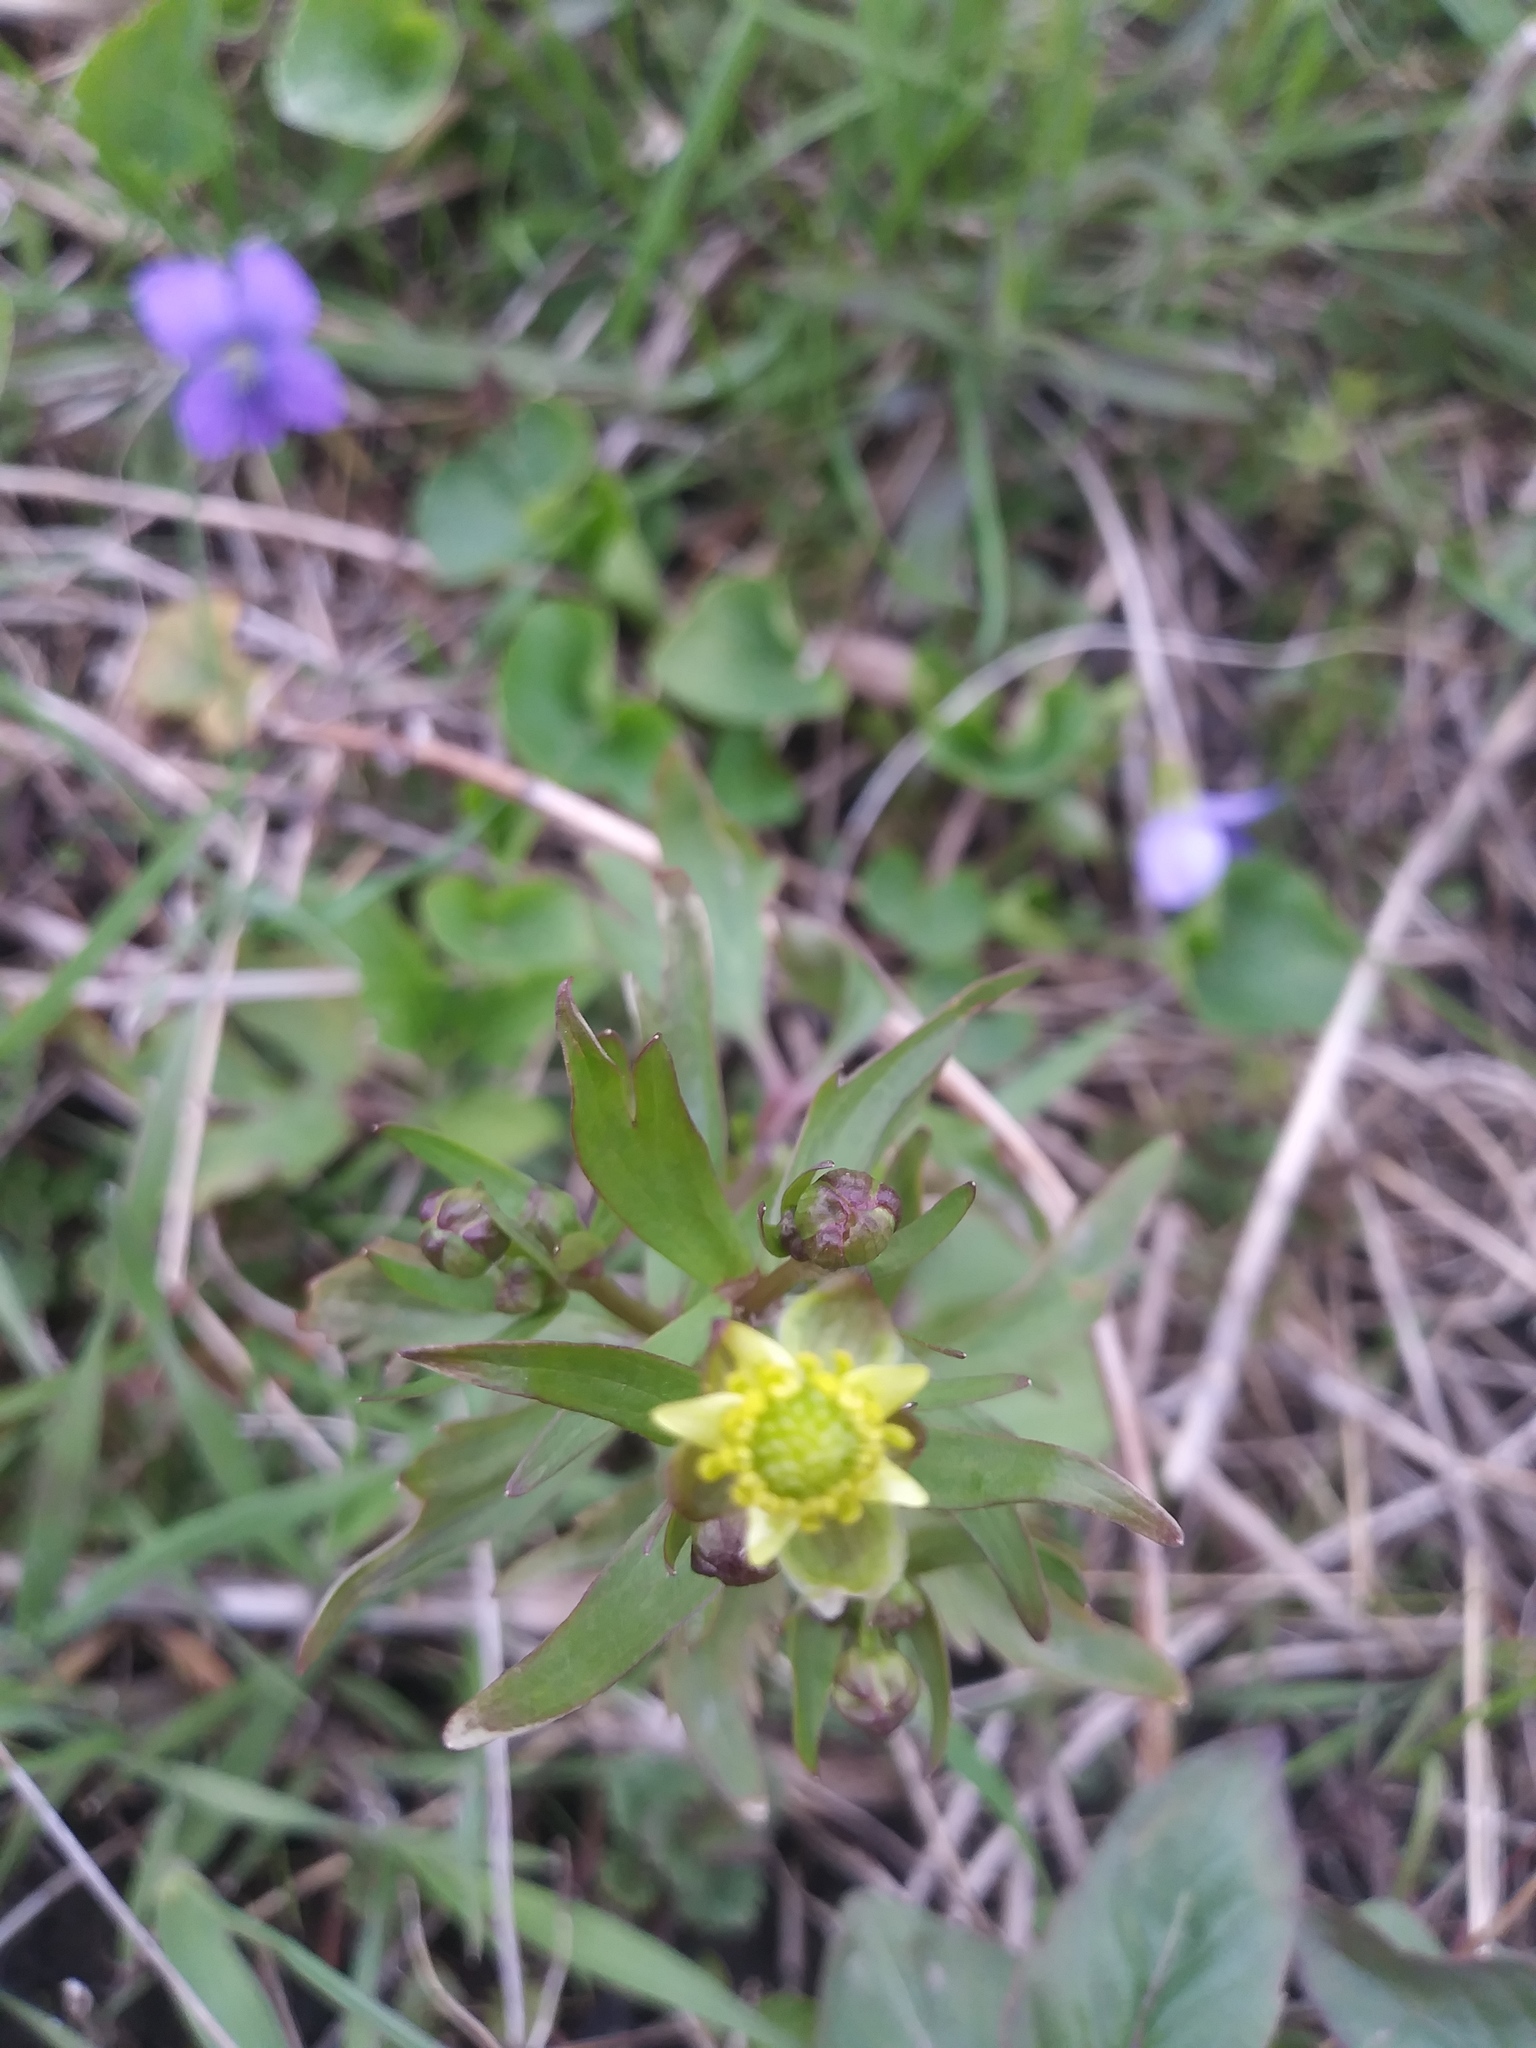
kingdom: Plantae
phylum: Tracheophyta
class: Magnoliopsida
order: Ranunculales
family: Ranunculaceae
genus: Ranunculus
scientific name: Ranunculus abortivus
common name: Early wood buttercup
